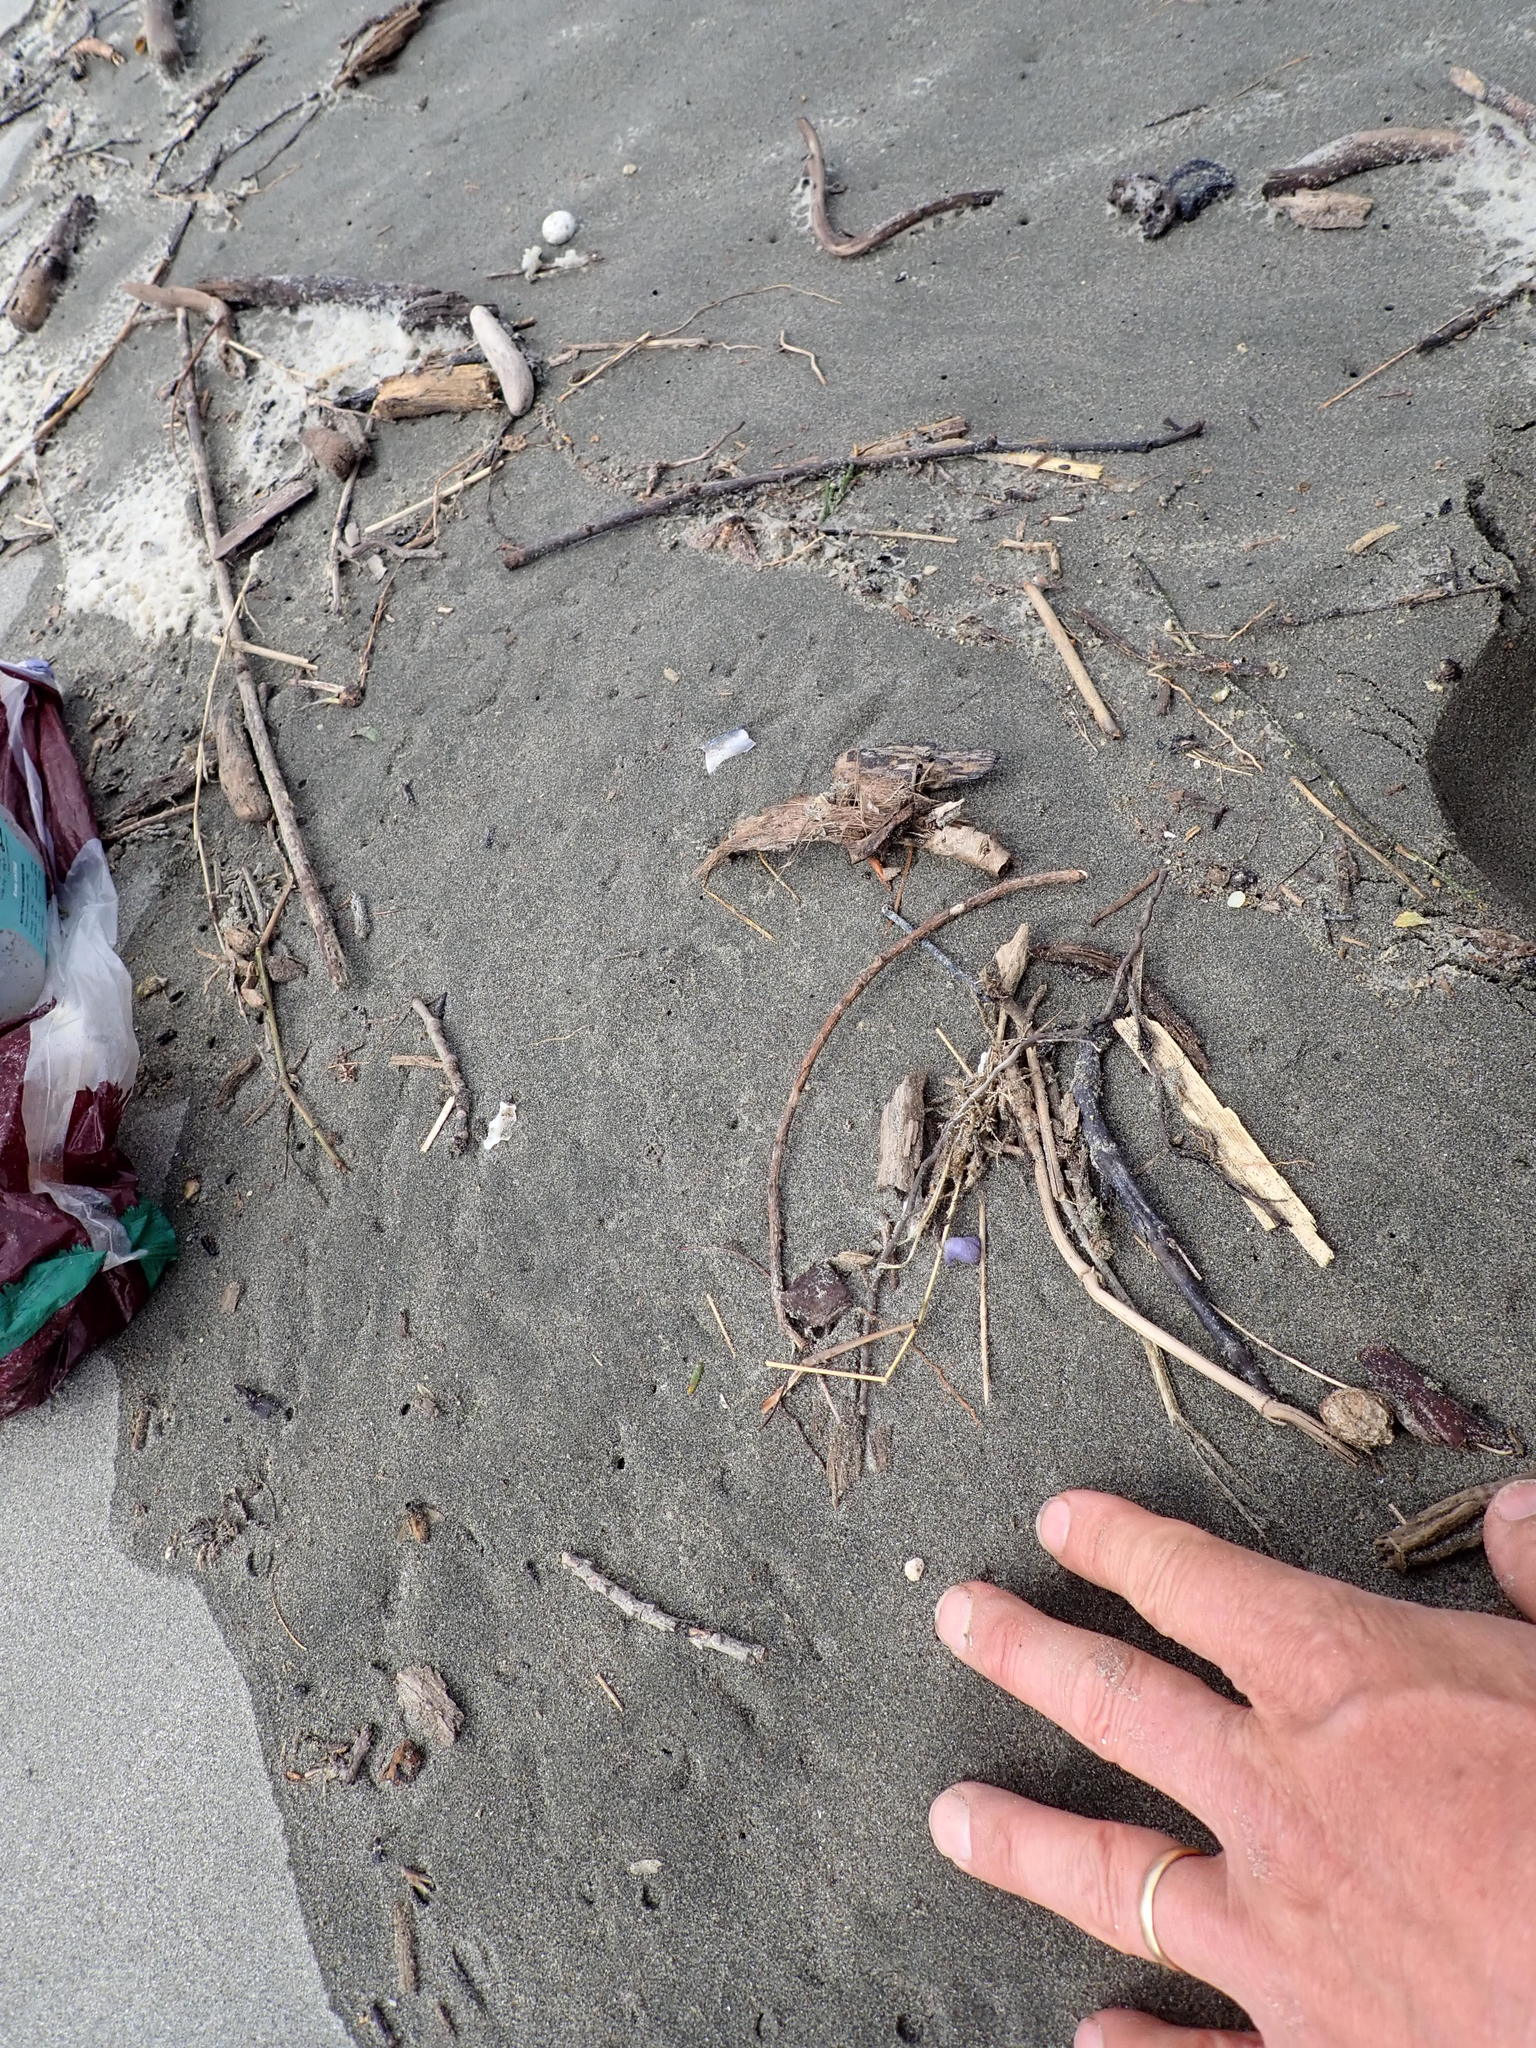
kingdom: Animalia
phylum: Mollusca
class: Gastropoda
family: Epitoniidae
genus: Janthina
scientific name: Janthina exigua
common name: Dwarf janthina
